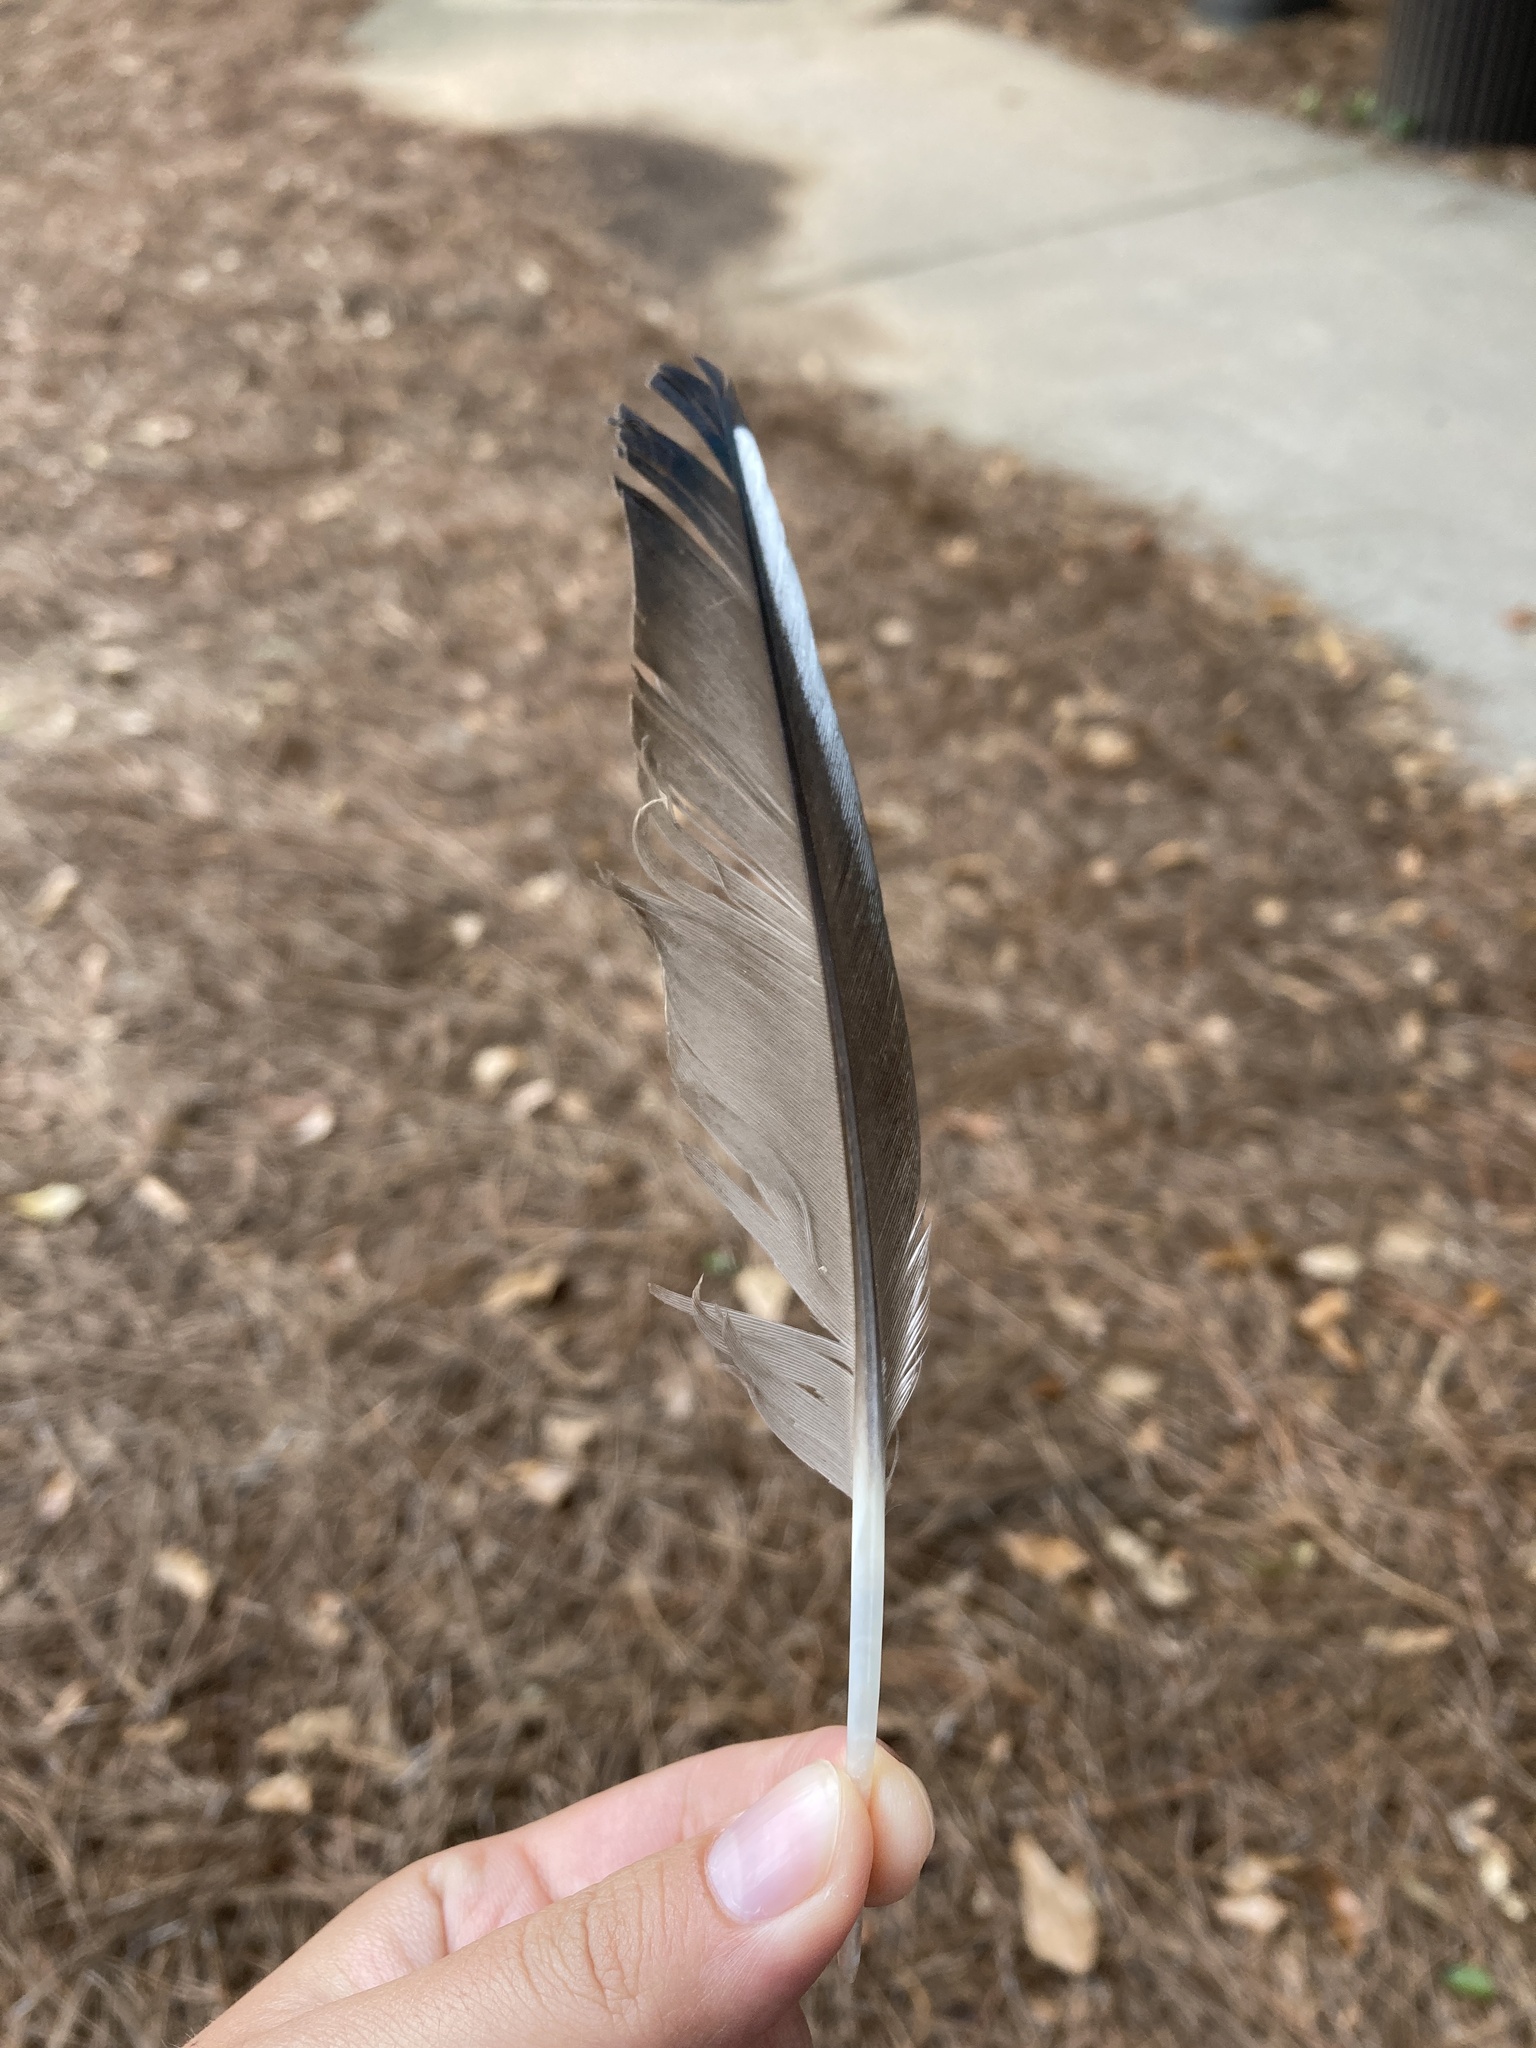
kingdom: Animalia
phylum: Chordata
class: Aves
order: Anseriformes
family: Anatidae
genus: Aix
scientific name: Aix sponsa
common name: Wood duck
